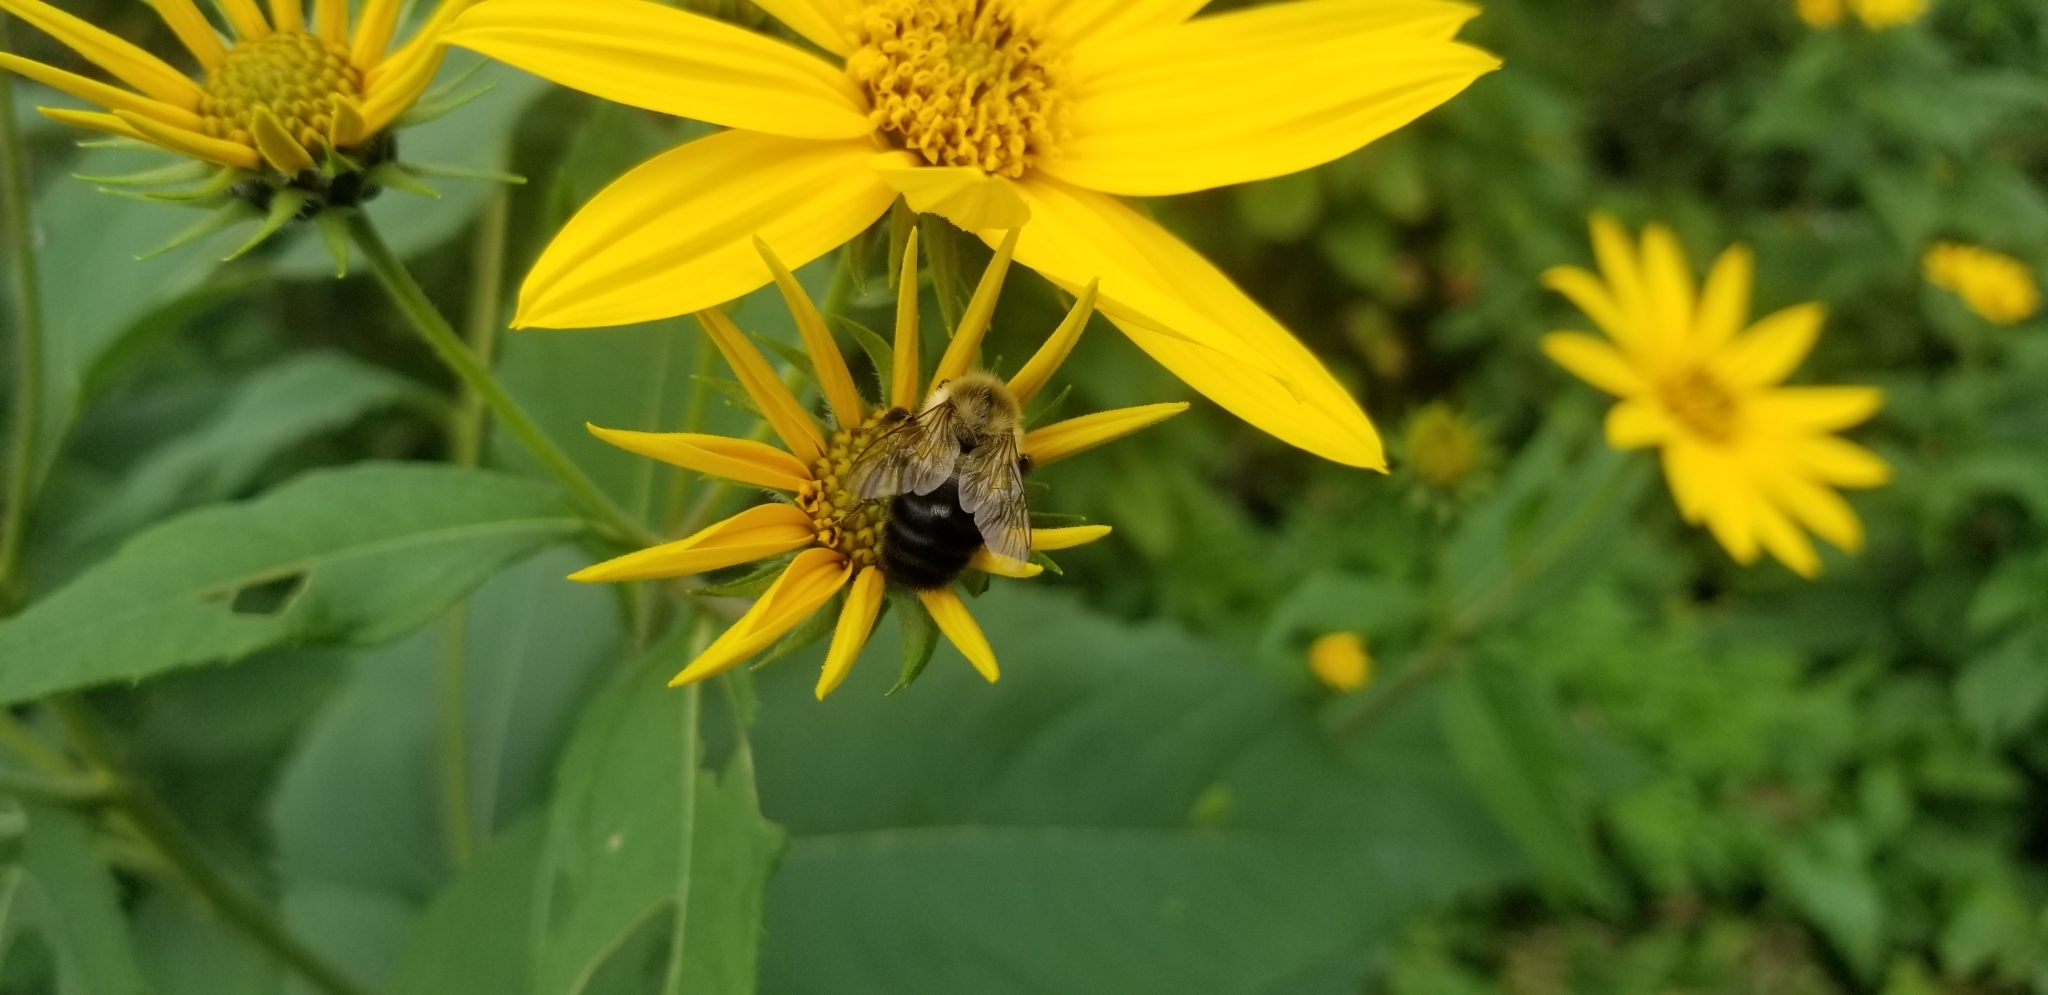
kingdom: Animalia
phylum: Arthropoda
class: Insecta
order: Hymenoptera
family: Apidae
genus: Bombus
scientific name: Bombus impatiens
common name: Common eastern bumble bee
